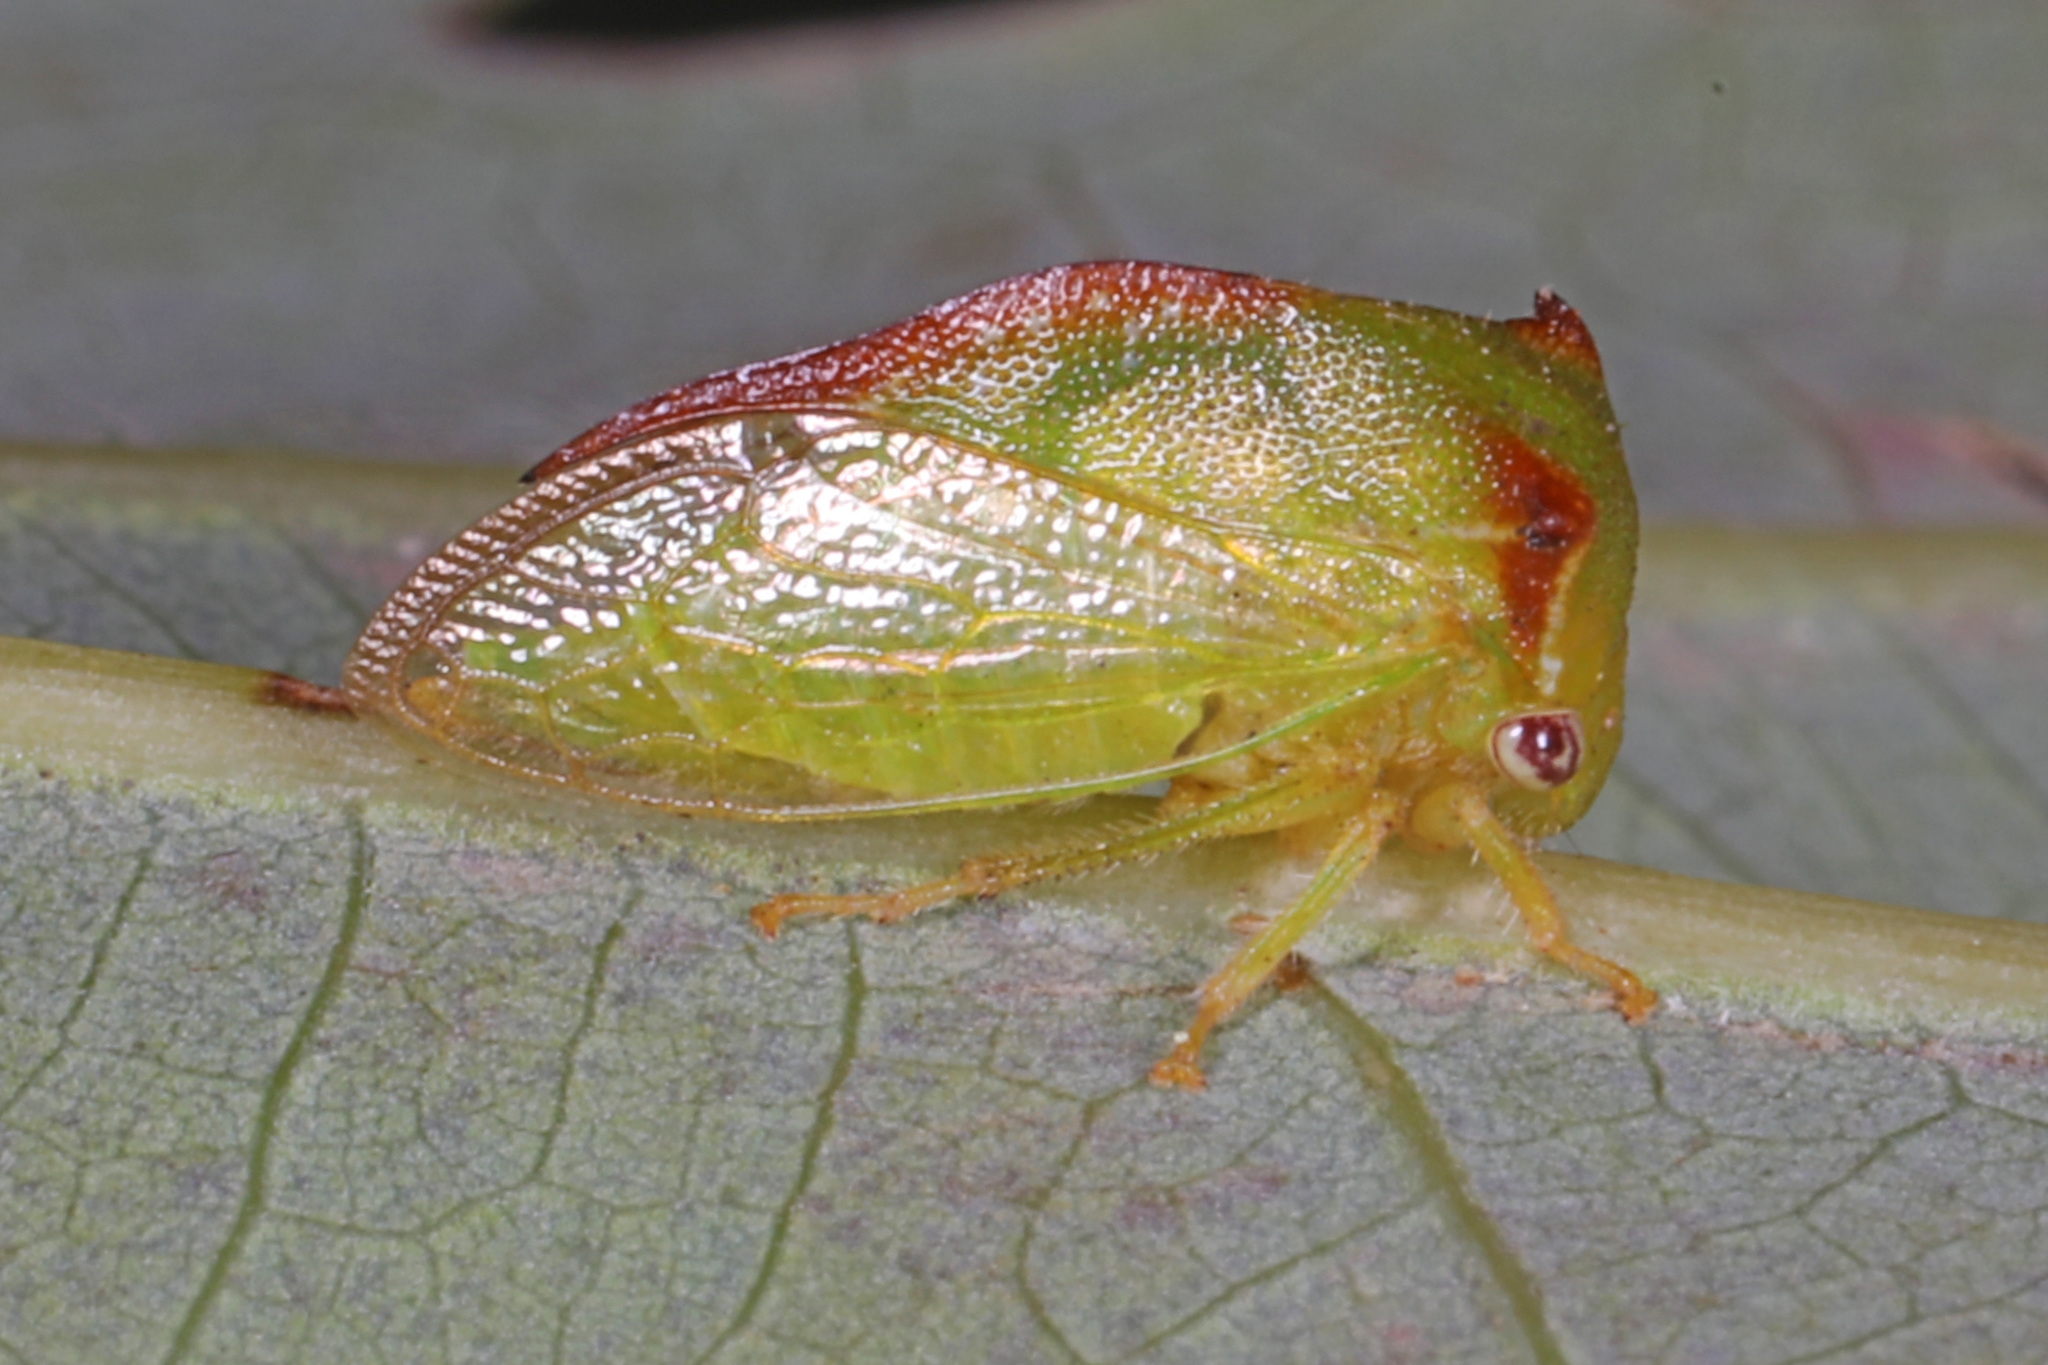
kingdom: Animalia
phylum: Arthropoda
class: Insecta
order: Hemiptera
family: Membracidae
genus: Stictocephala
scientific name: Stictocephala militaris
